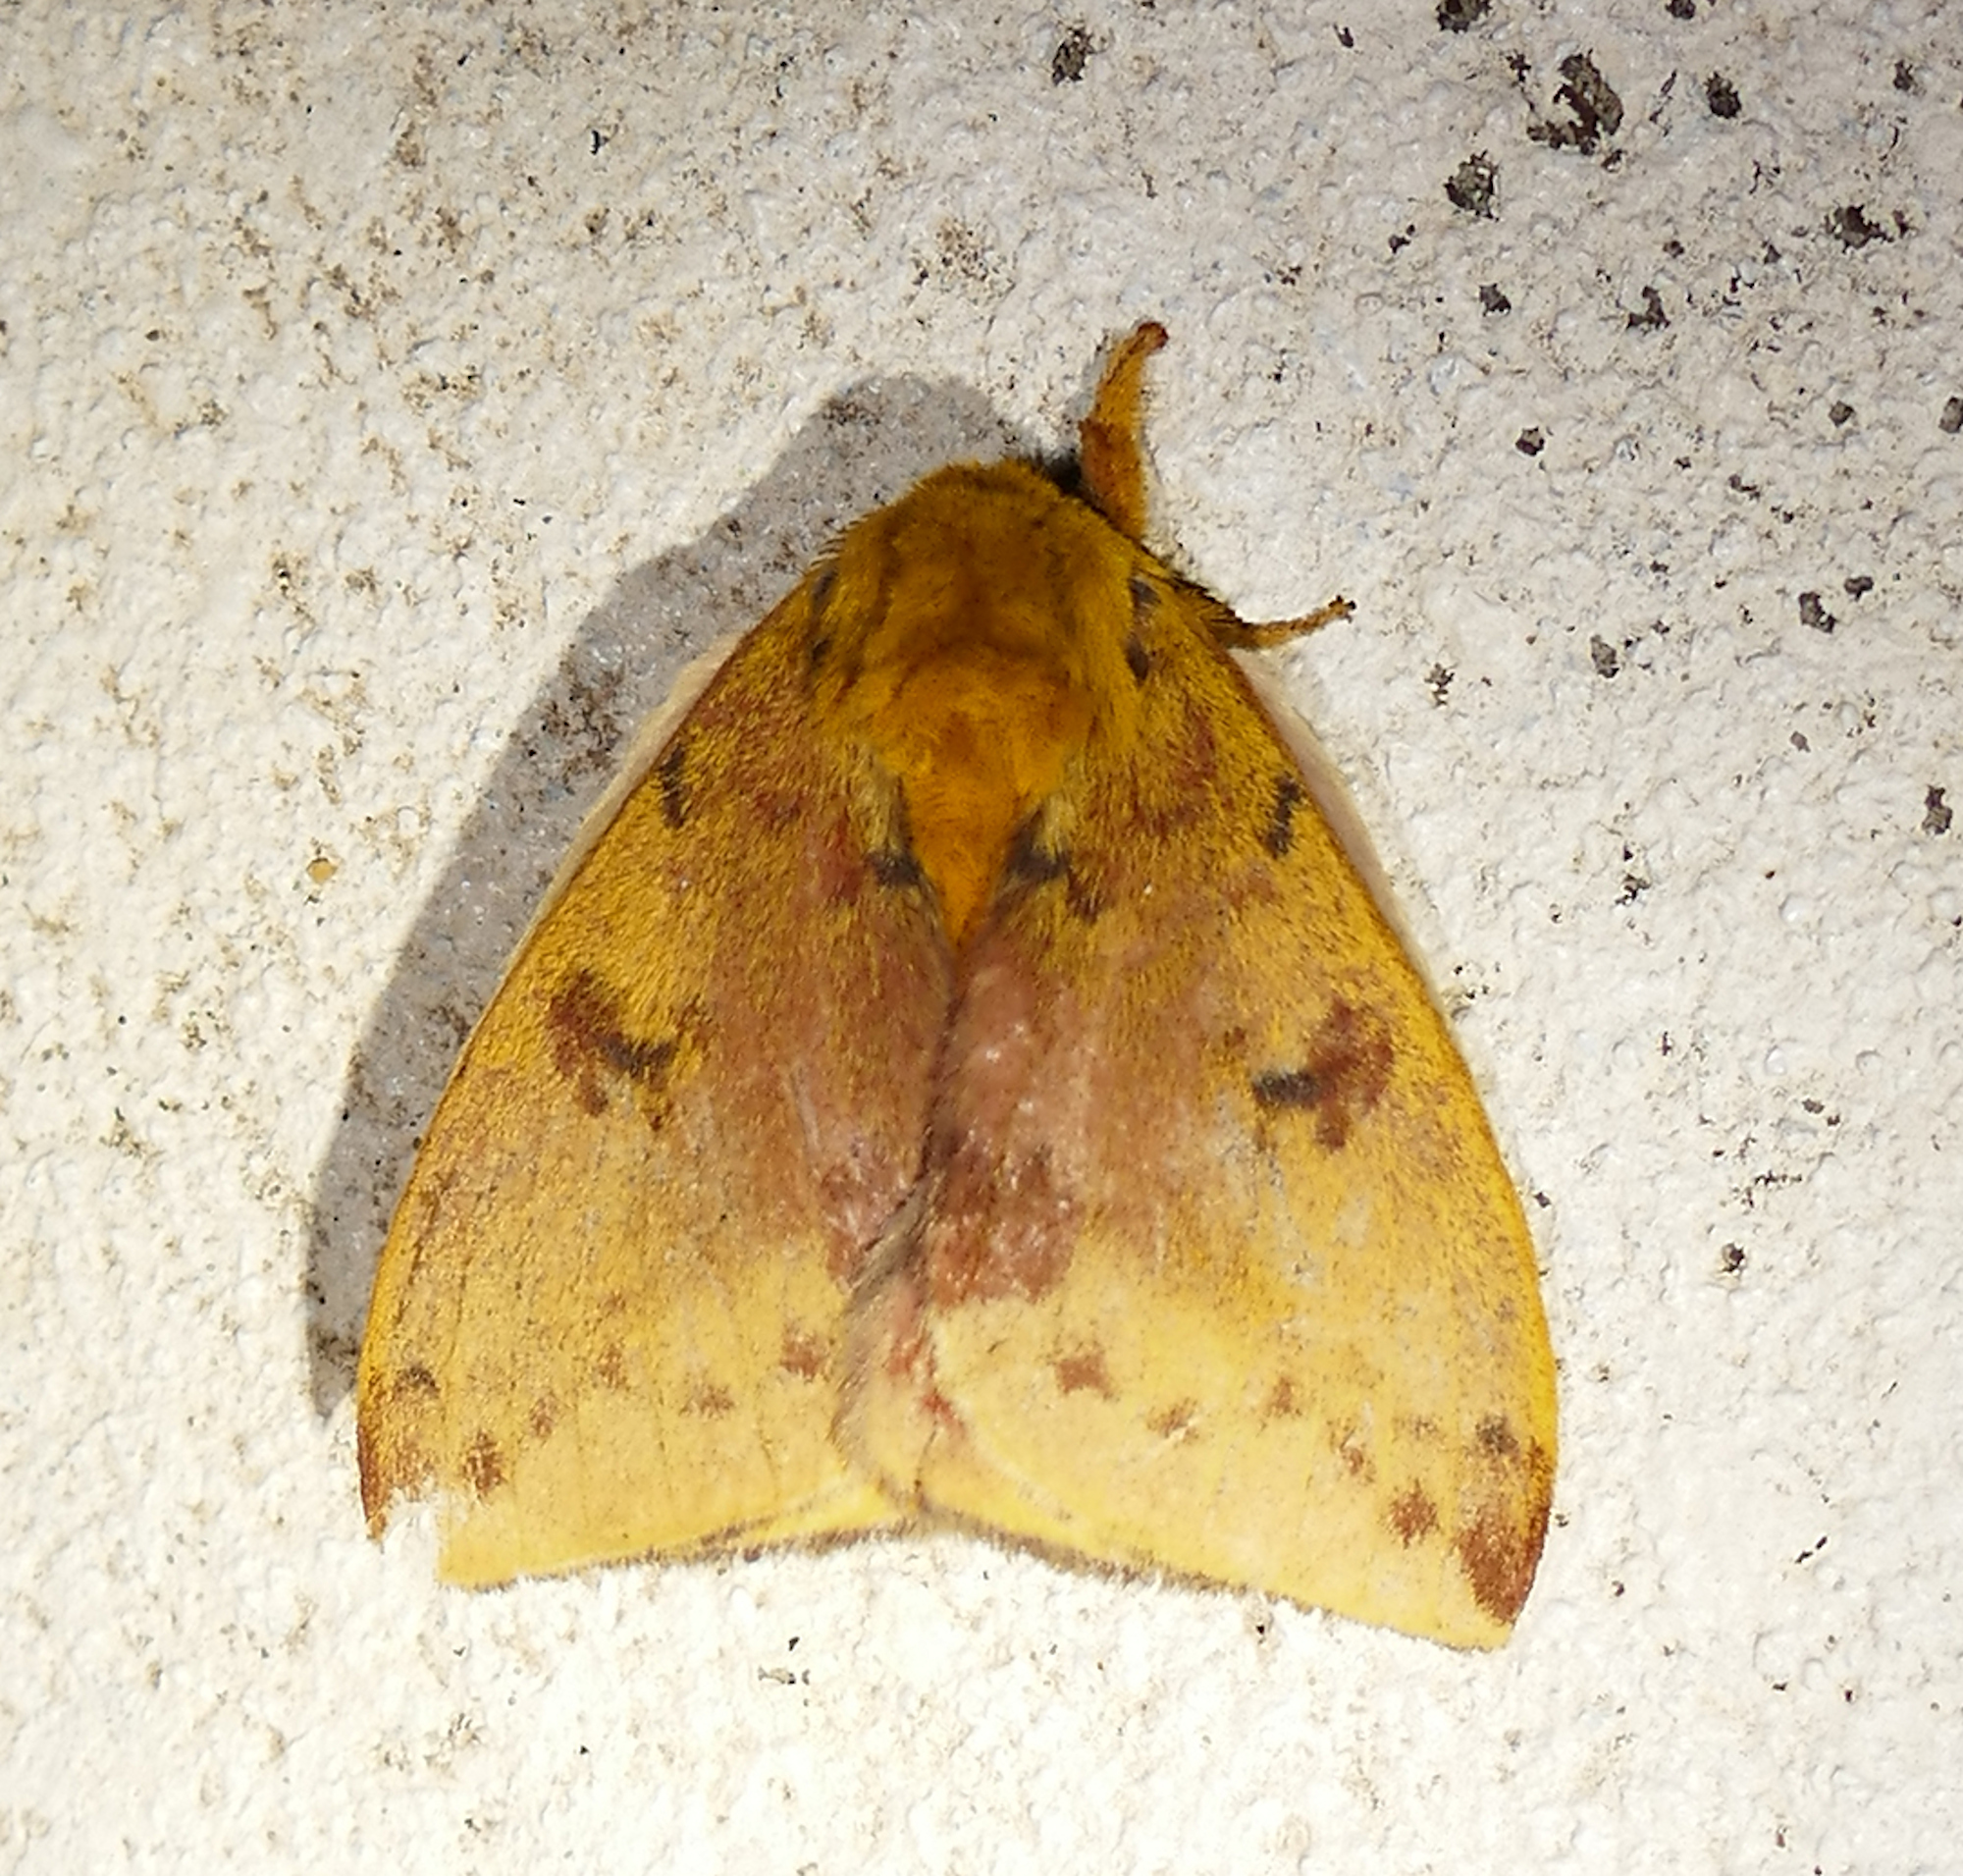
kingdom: Animalia
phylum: Arthropoda
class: Insecta
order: Lepidoptera
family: Saturniidae
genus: Automeris
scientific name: Automeris io
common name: Io moth
